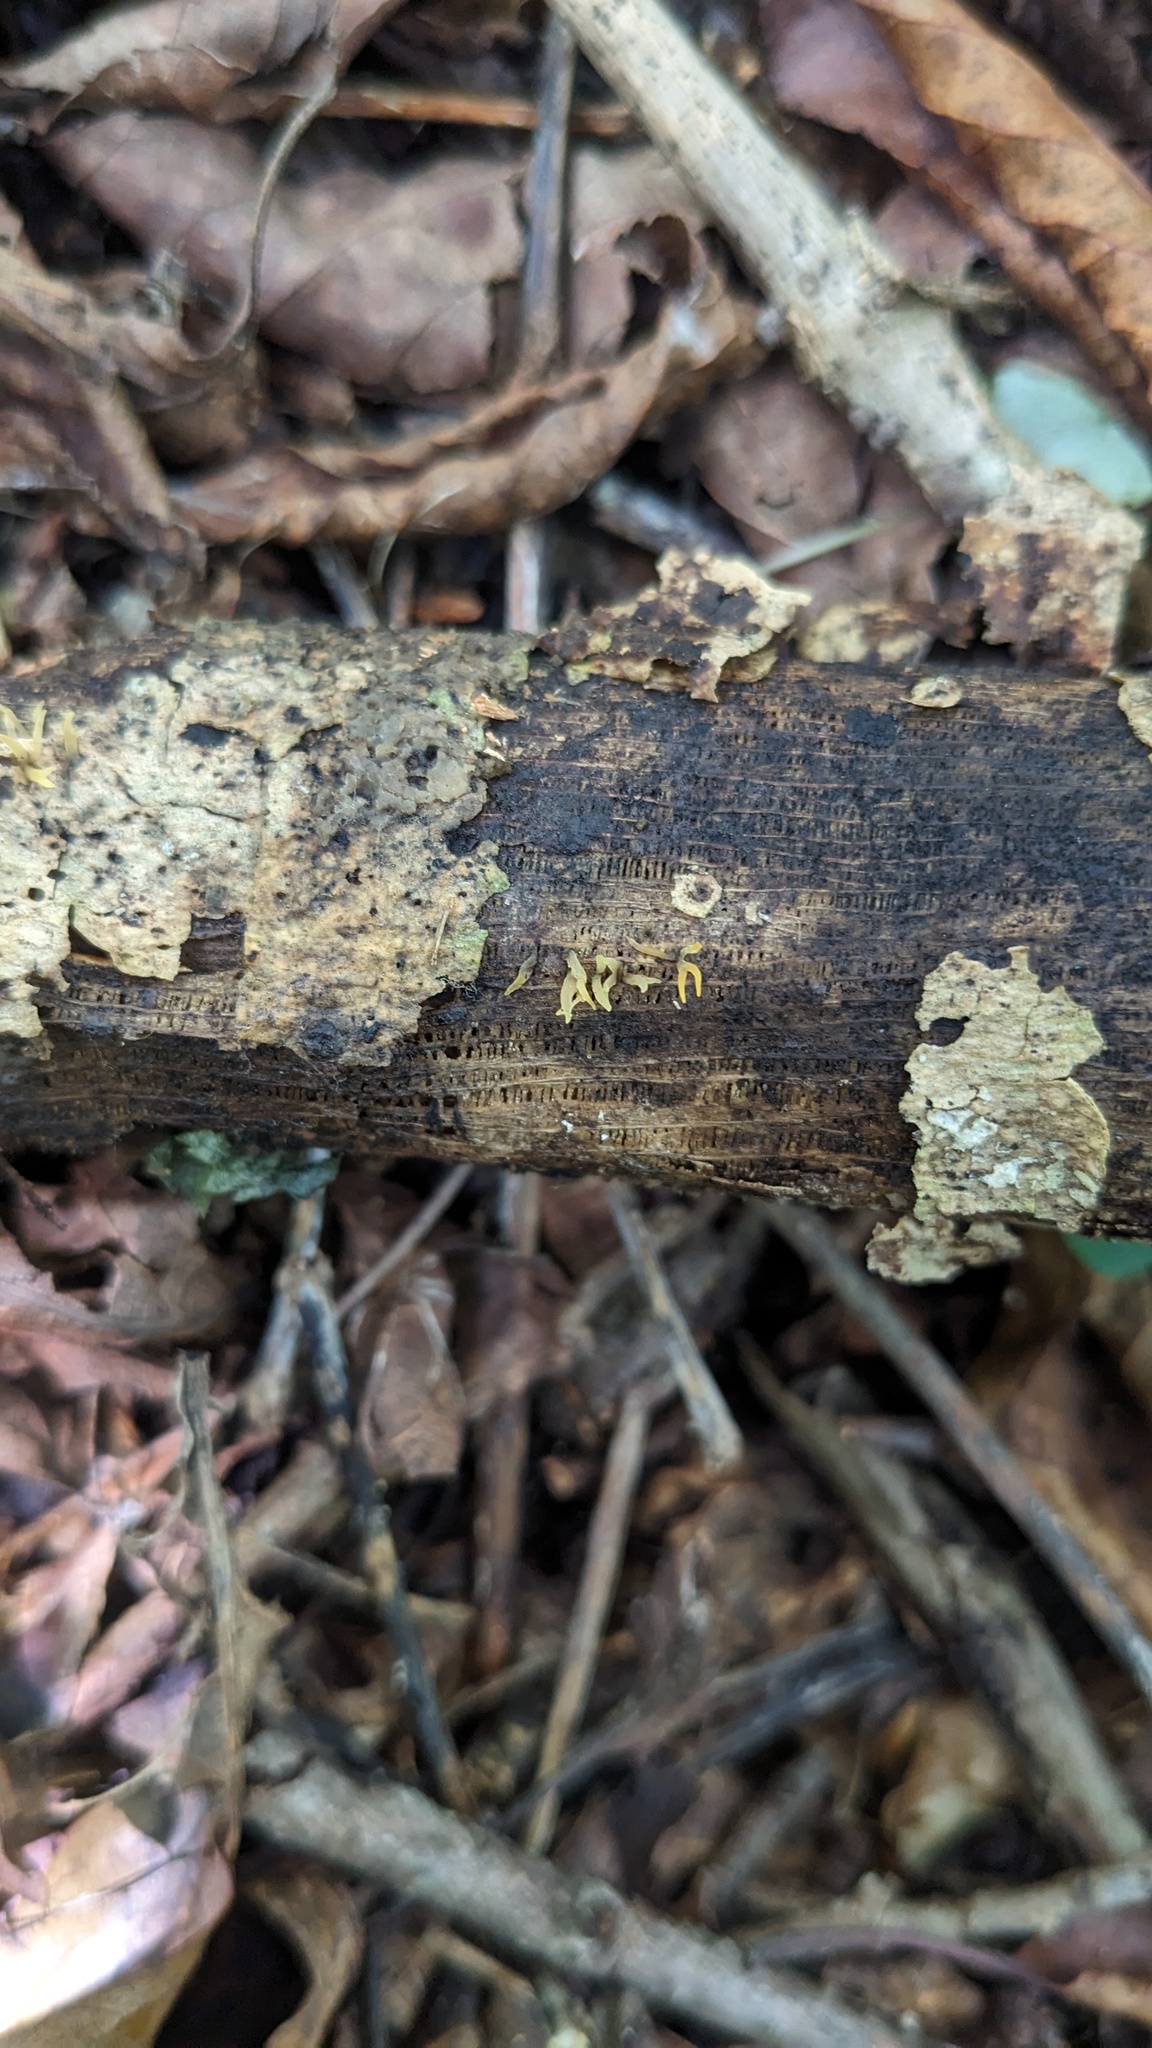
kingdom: Fungi
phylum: Basidiomycota
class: Dacrymycetes
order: Dacrymycetales
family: Dacrymycetaceae
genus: Calocera
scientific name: Calocera cornea
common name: Small stagshorn
